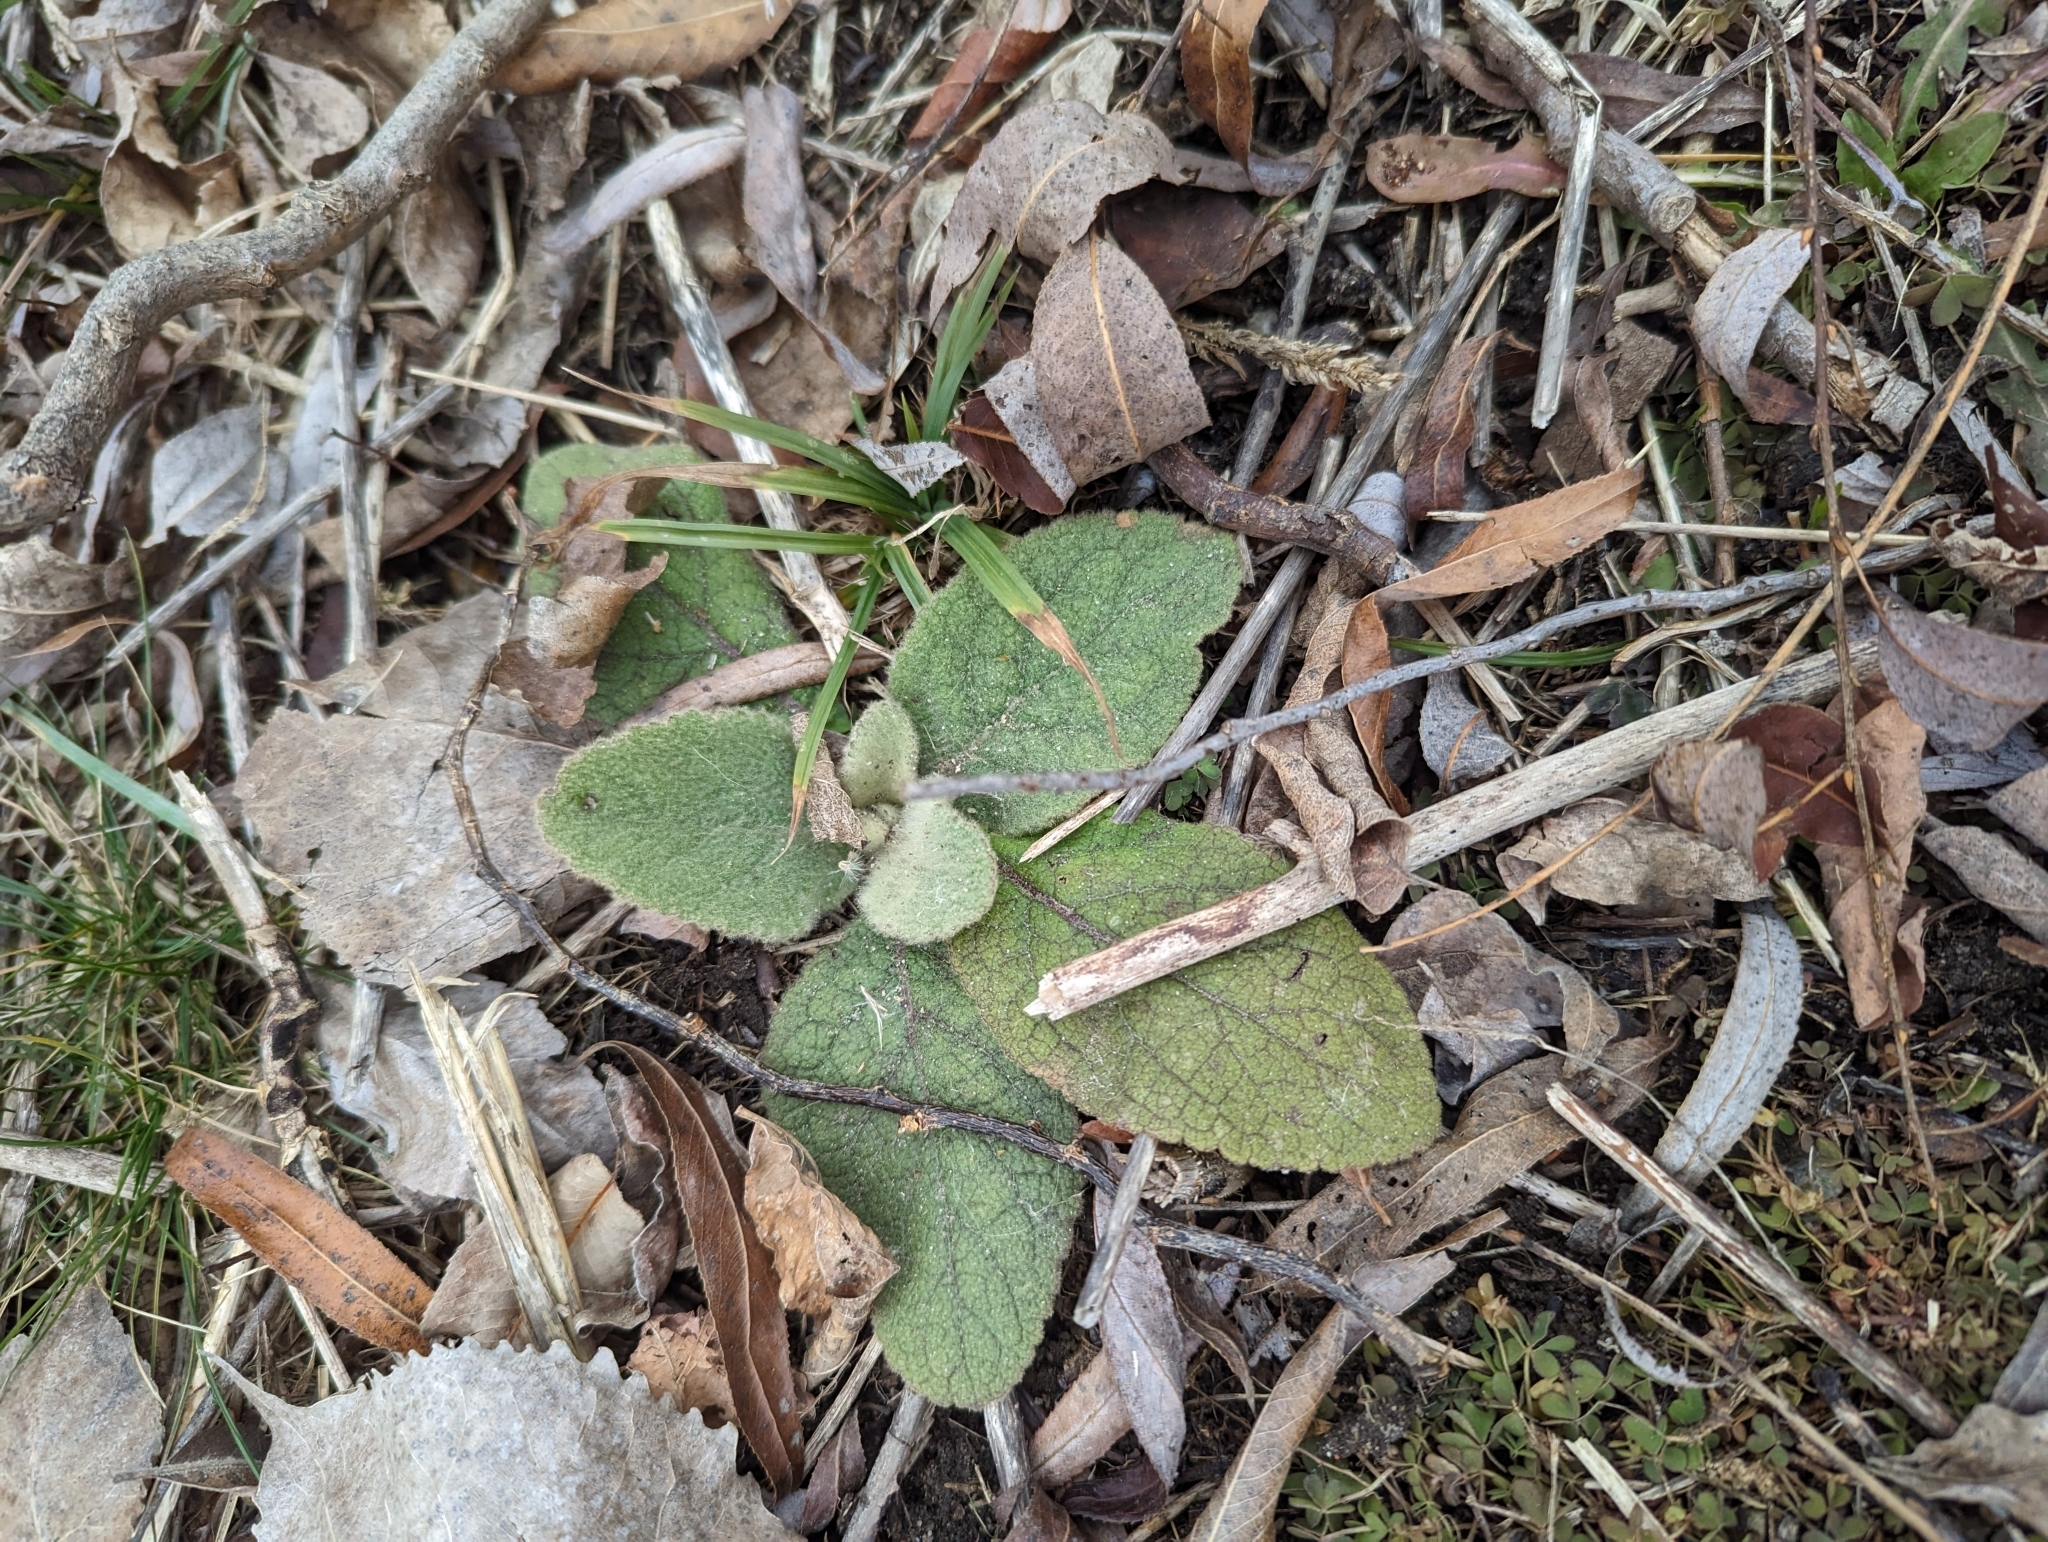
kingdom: Plantae
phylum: Tracheophyta
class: Magnoliopsida
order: Lamiales
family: Scrophulariaceae
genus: Verbascum
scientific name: Verbascum thapsus
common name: Common mullein
